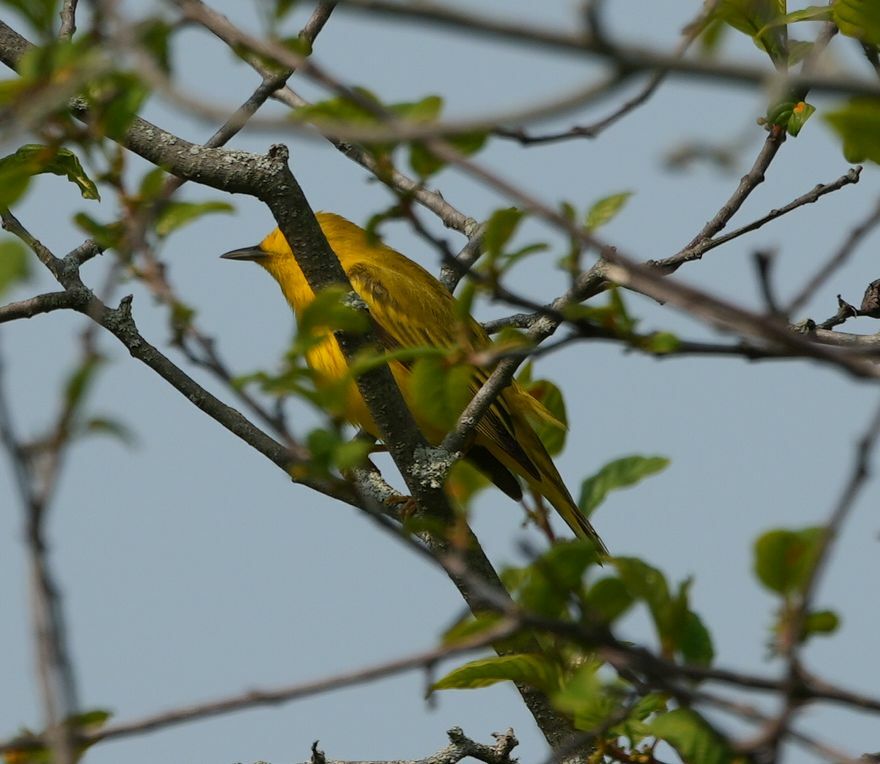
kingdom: Animalia
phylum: Chordata
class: Aves
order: Passeriformes
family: Parulidae
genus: Setophaga
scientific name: Setophaga petechia
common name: Yellow warbler
